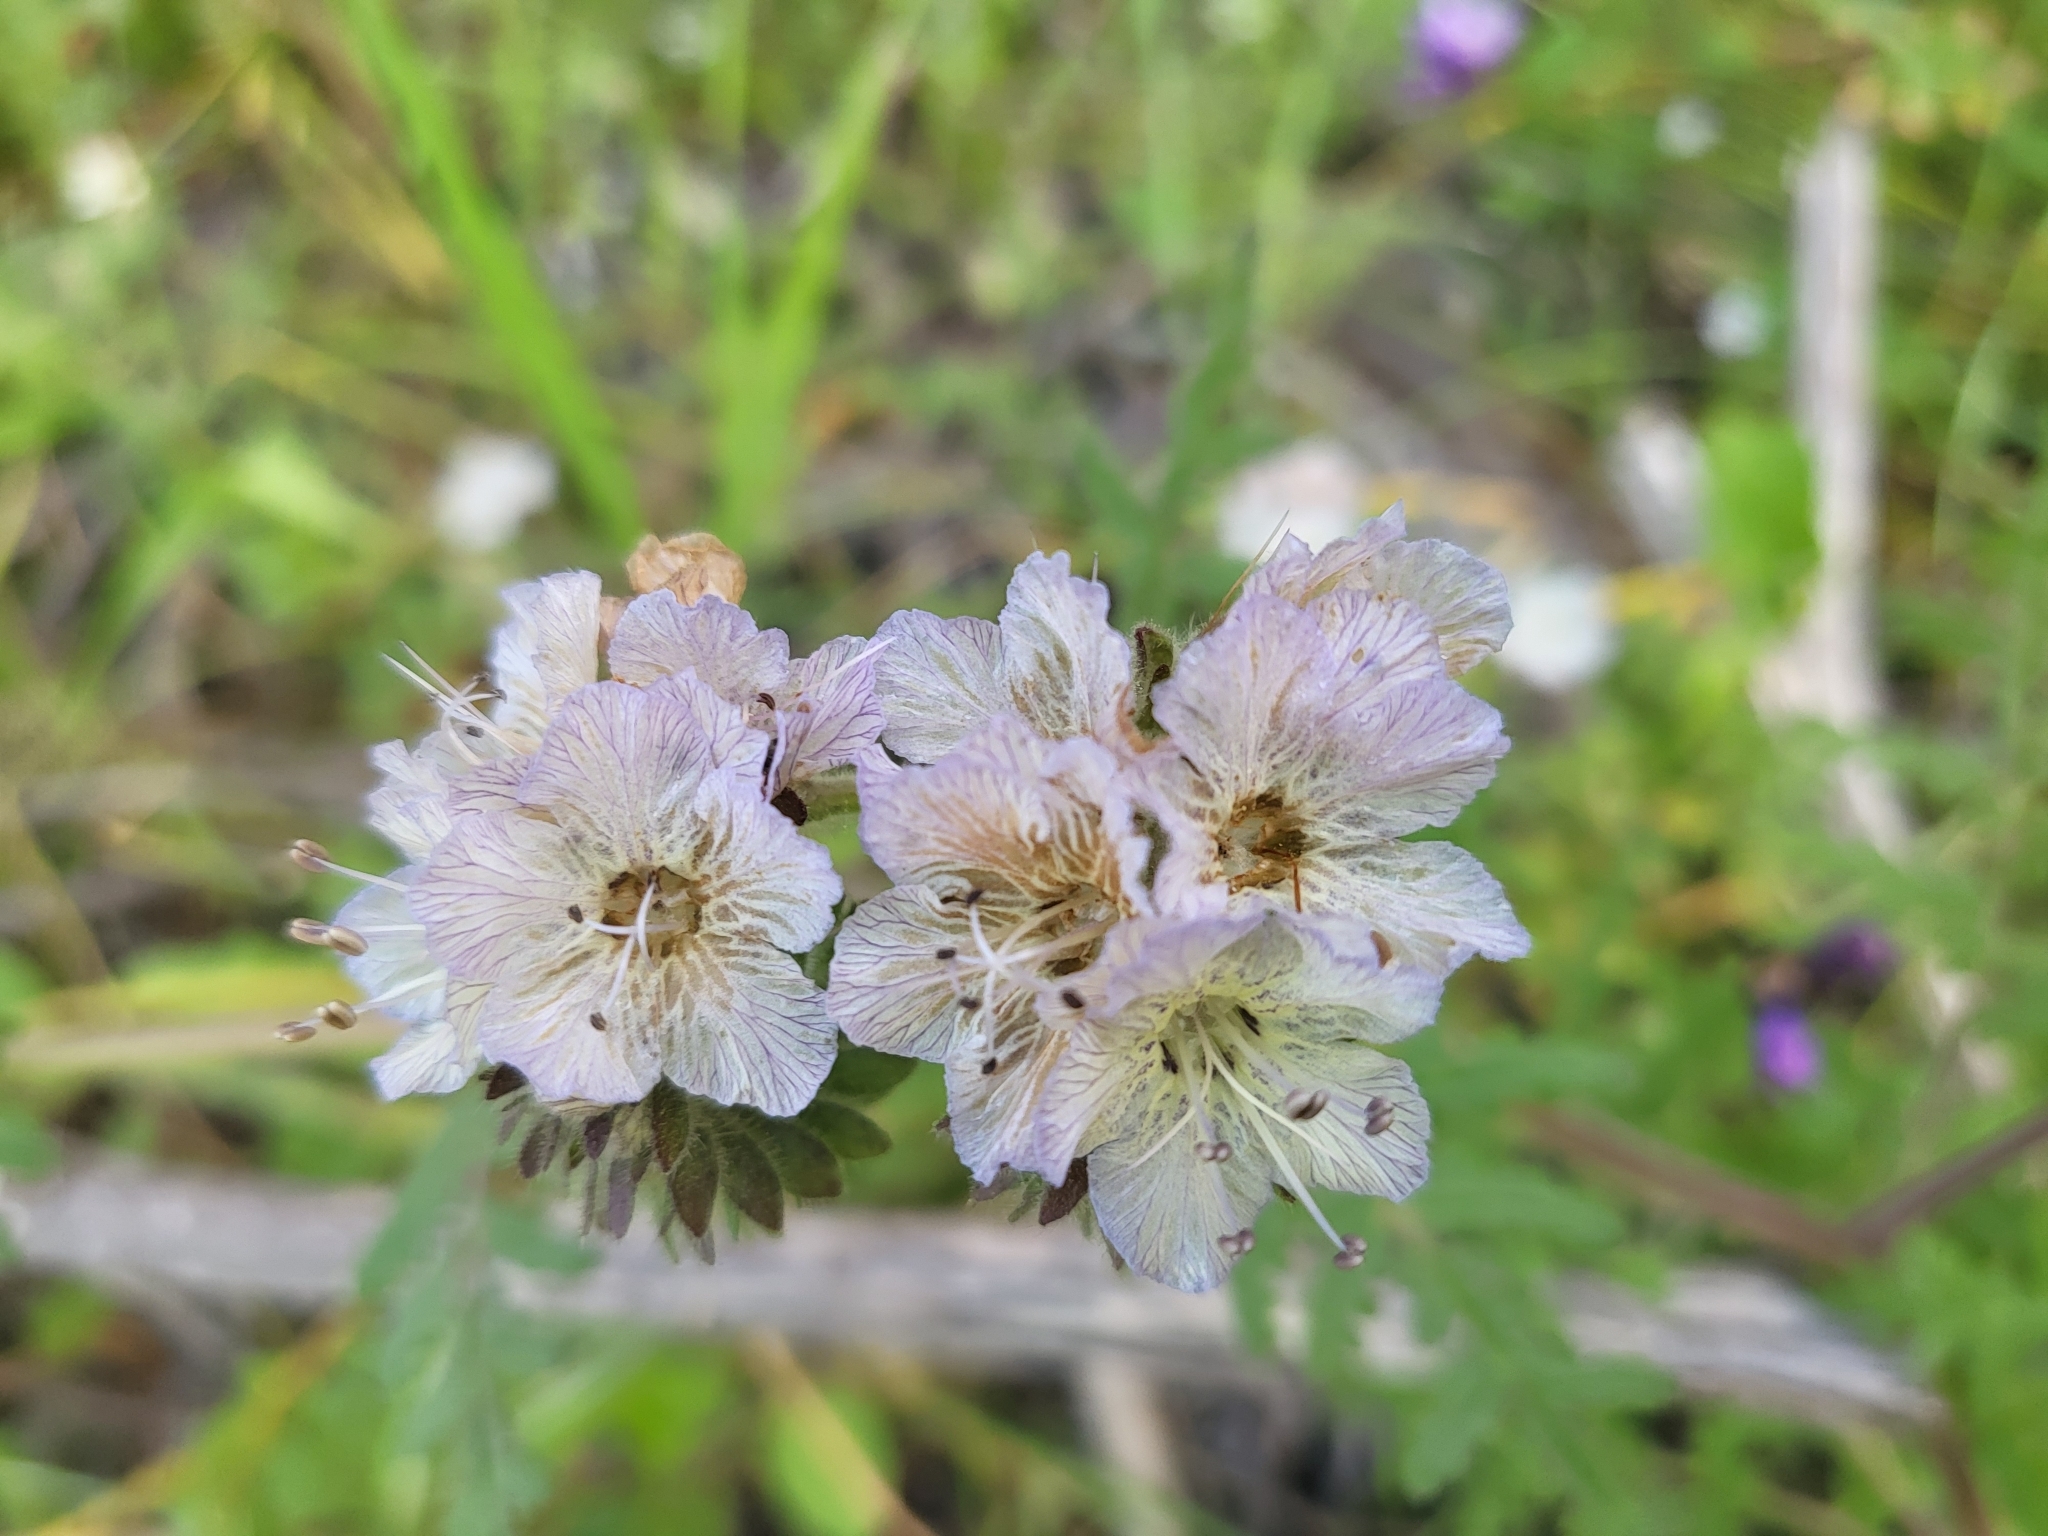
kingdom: Plantae
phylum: Tracheophyta
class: Magnoliopsida
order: Boraginales
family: Hydrophyllaceae
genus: Phacelia
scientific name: Phacelia distans
